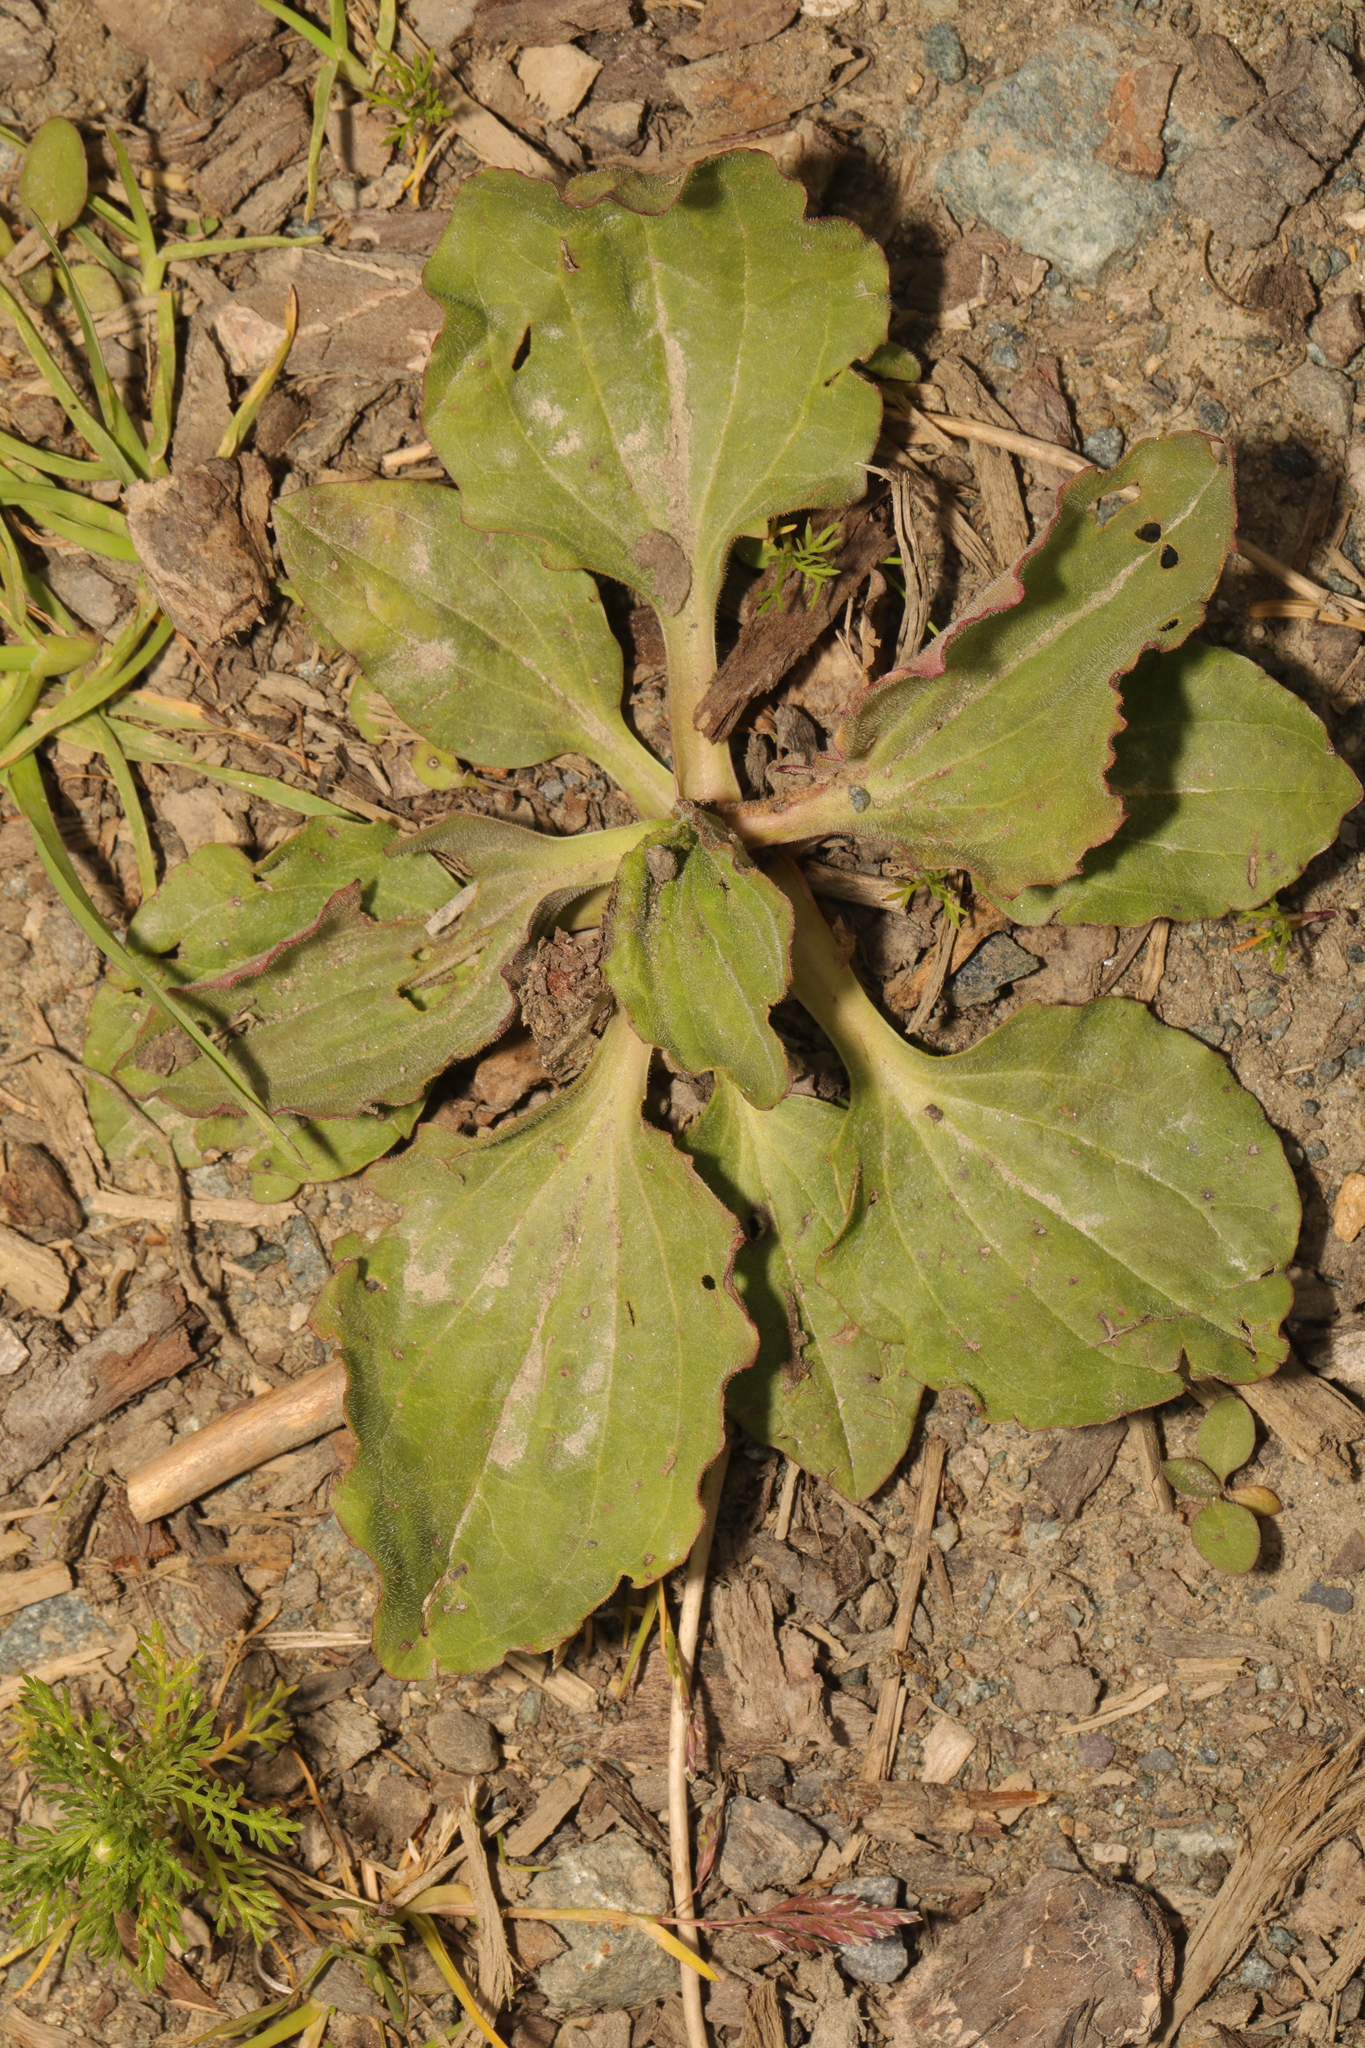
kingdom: Plantae
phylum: Tracheophyta
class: Magnoliopsida
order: Lamiales
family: Plantaginaceae
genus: Plantago
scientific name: Plantago major
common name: Common plantain
